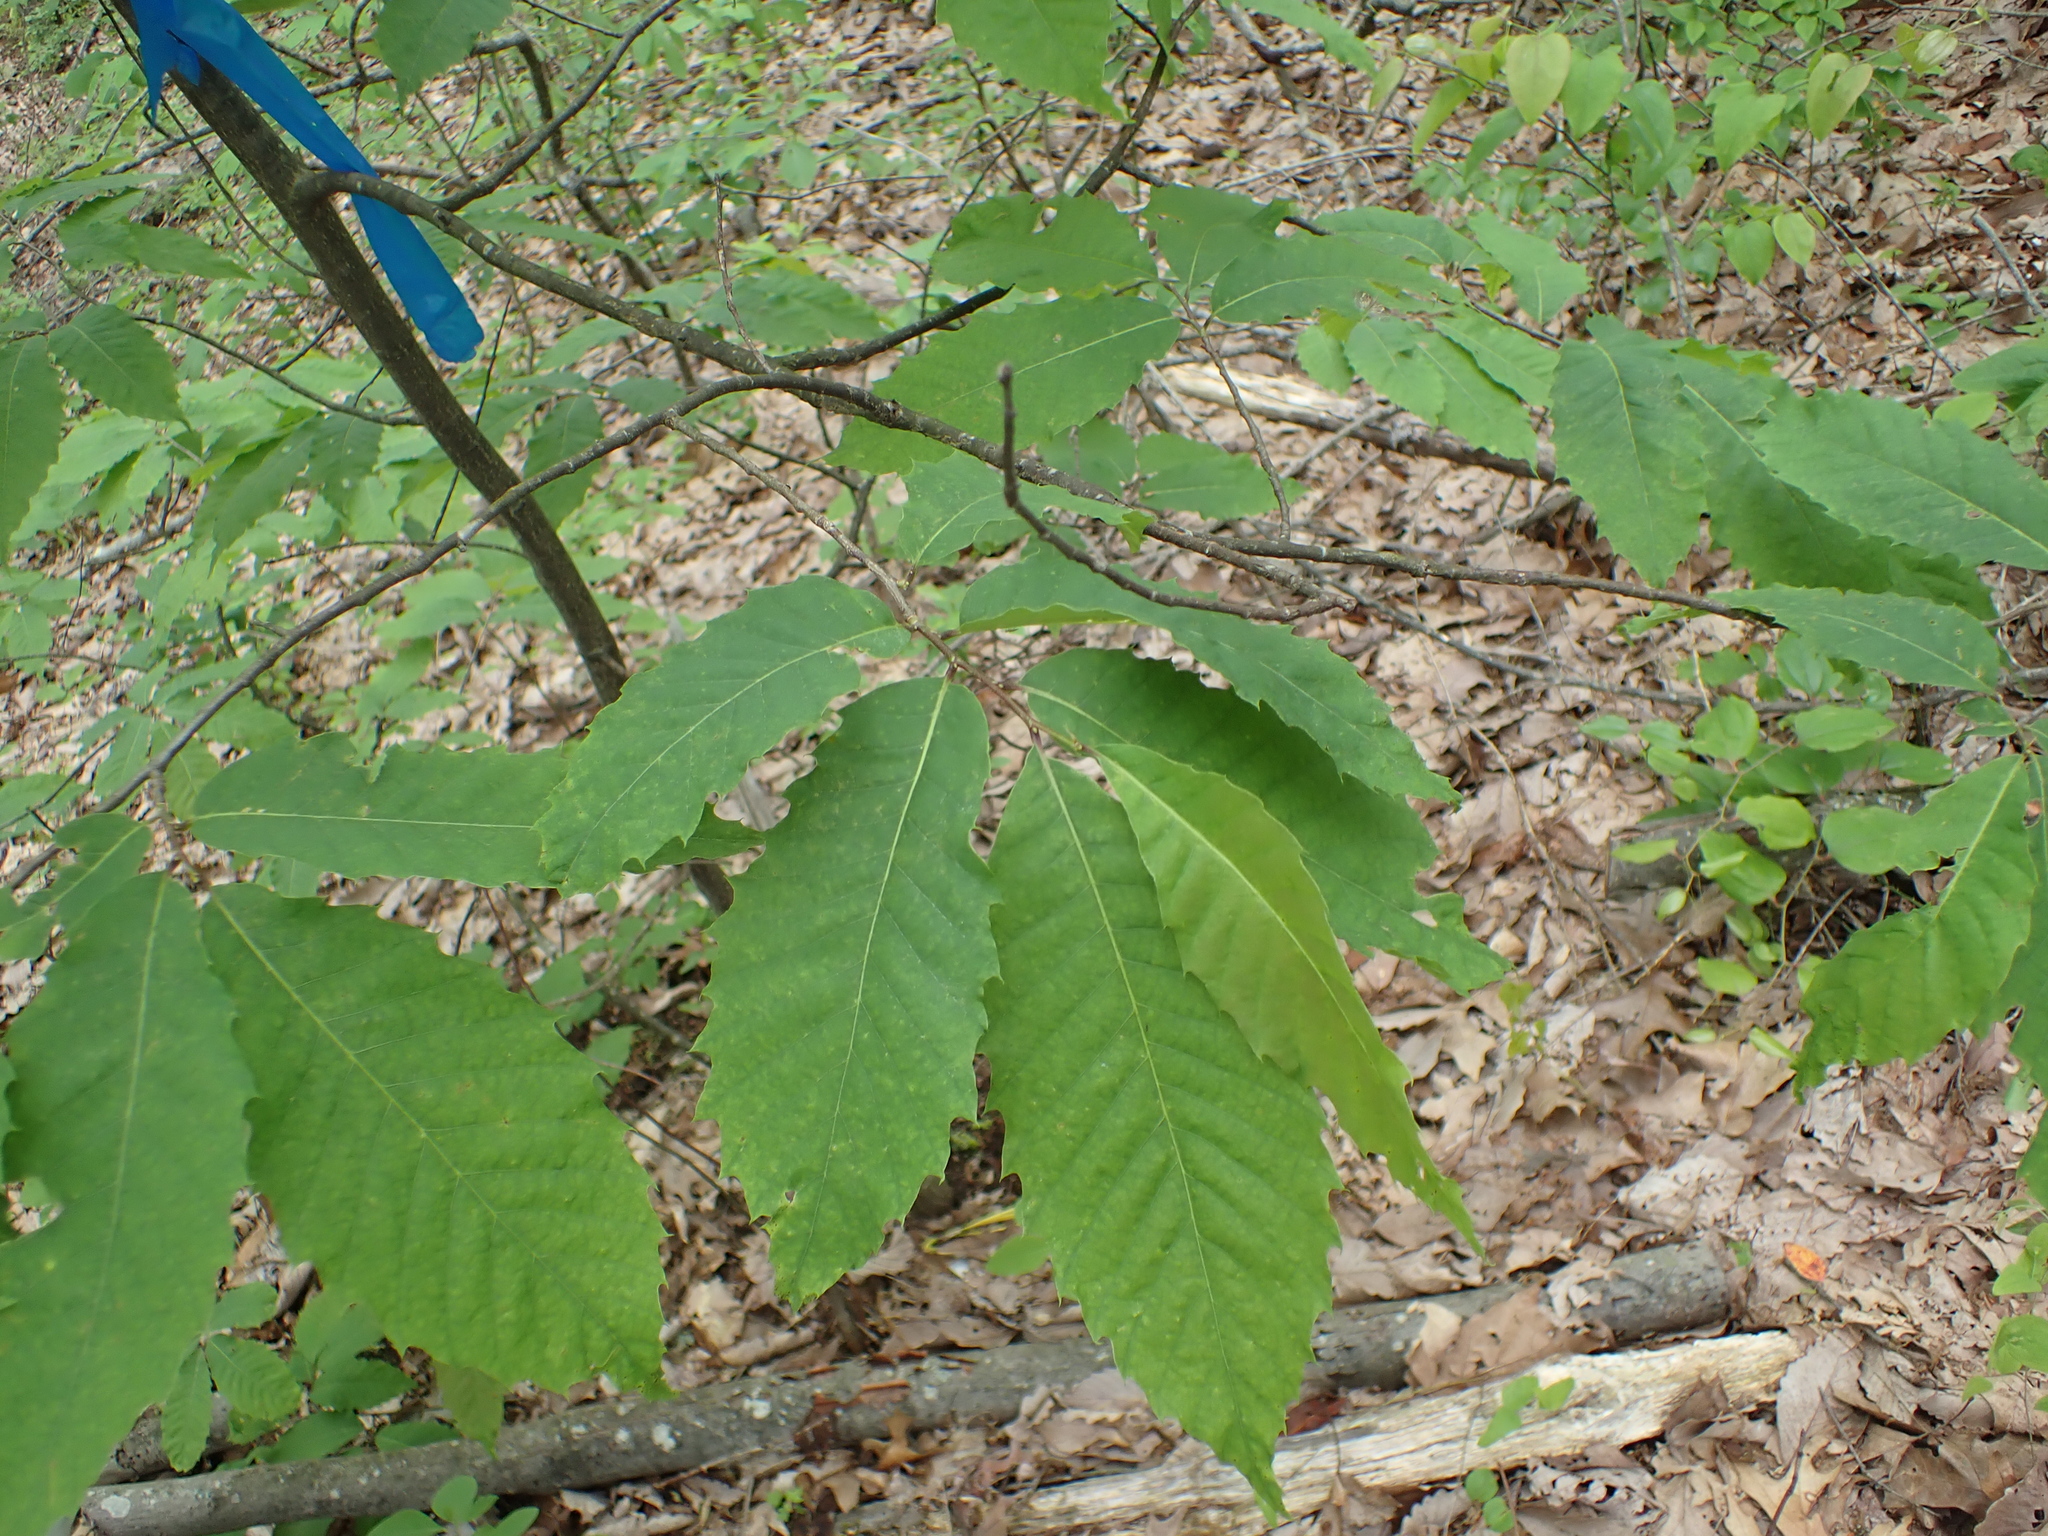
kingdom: Plantae
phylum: Tracheophyta
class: Magnoliopsida
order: Fagales
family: Fagaceae
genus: Castanea
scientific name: Castanea dentata
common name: American chestnut
